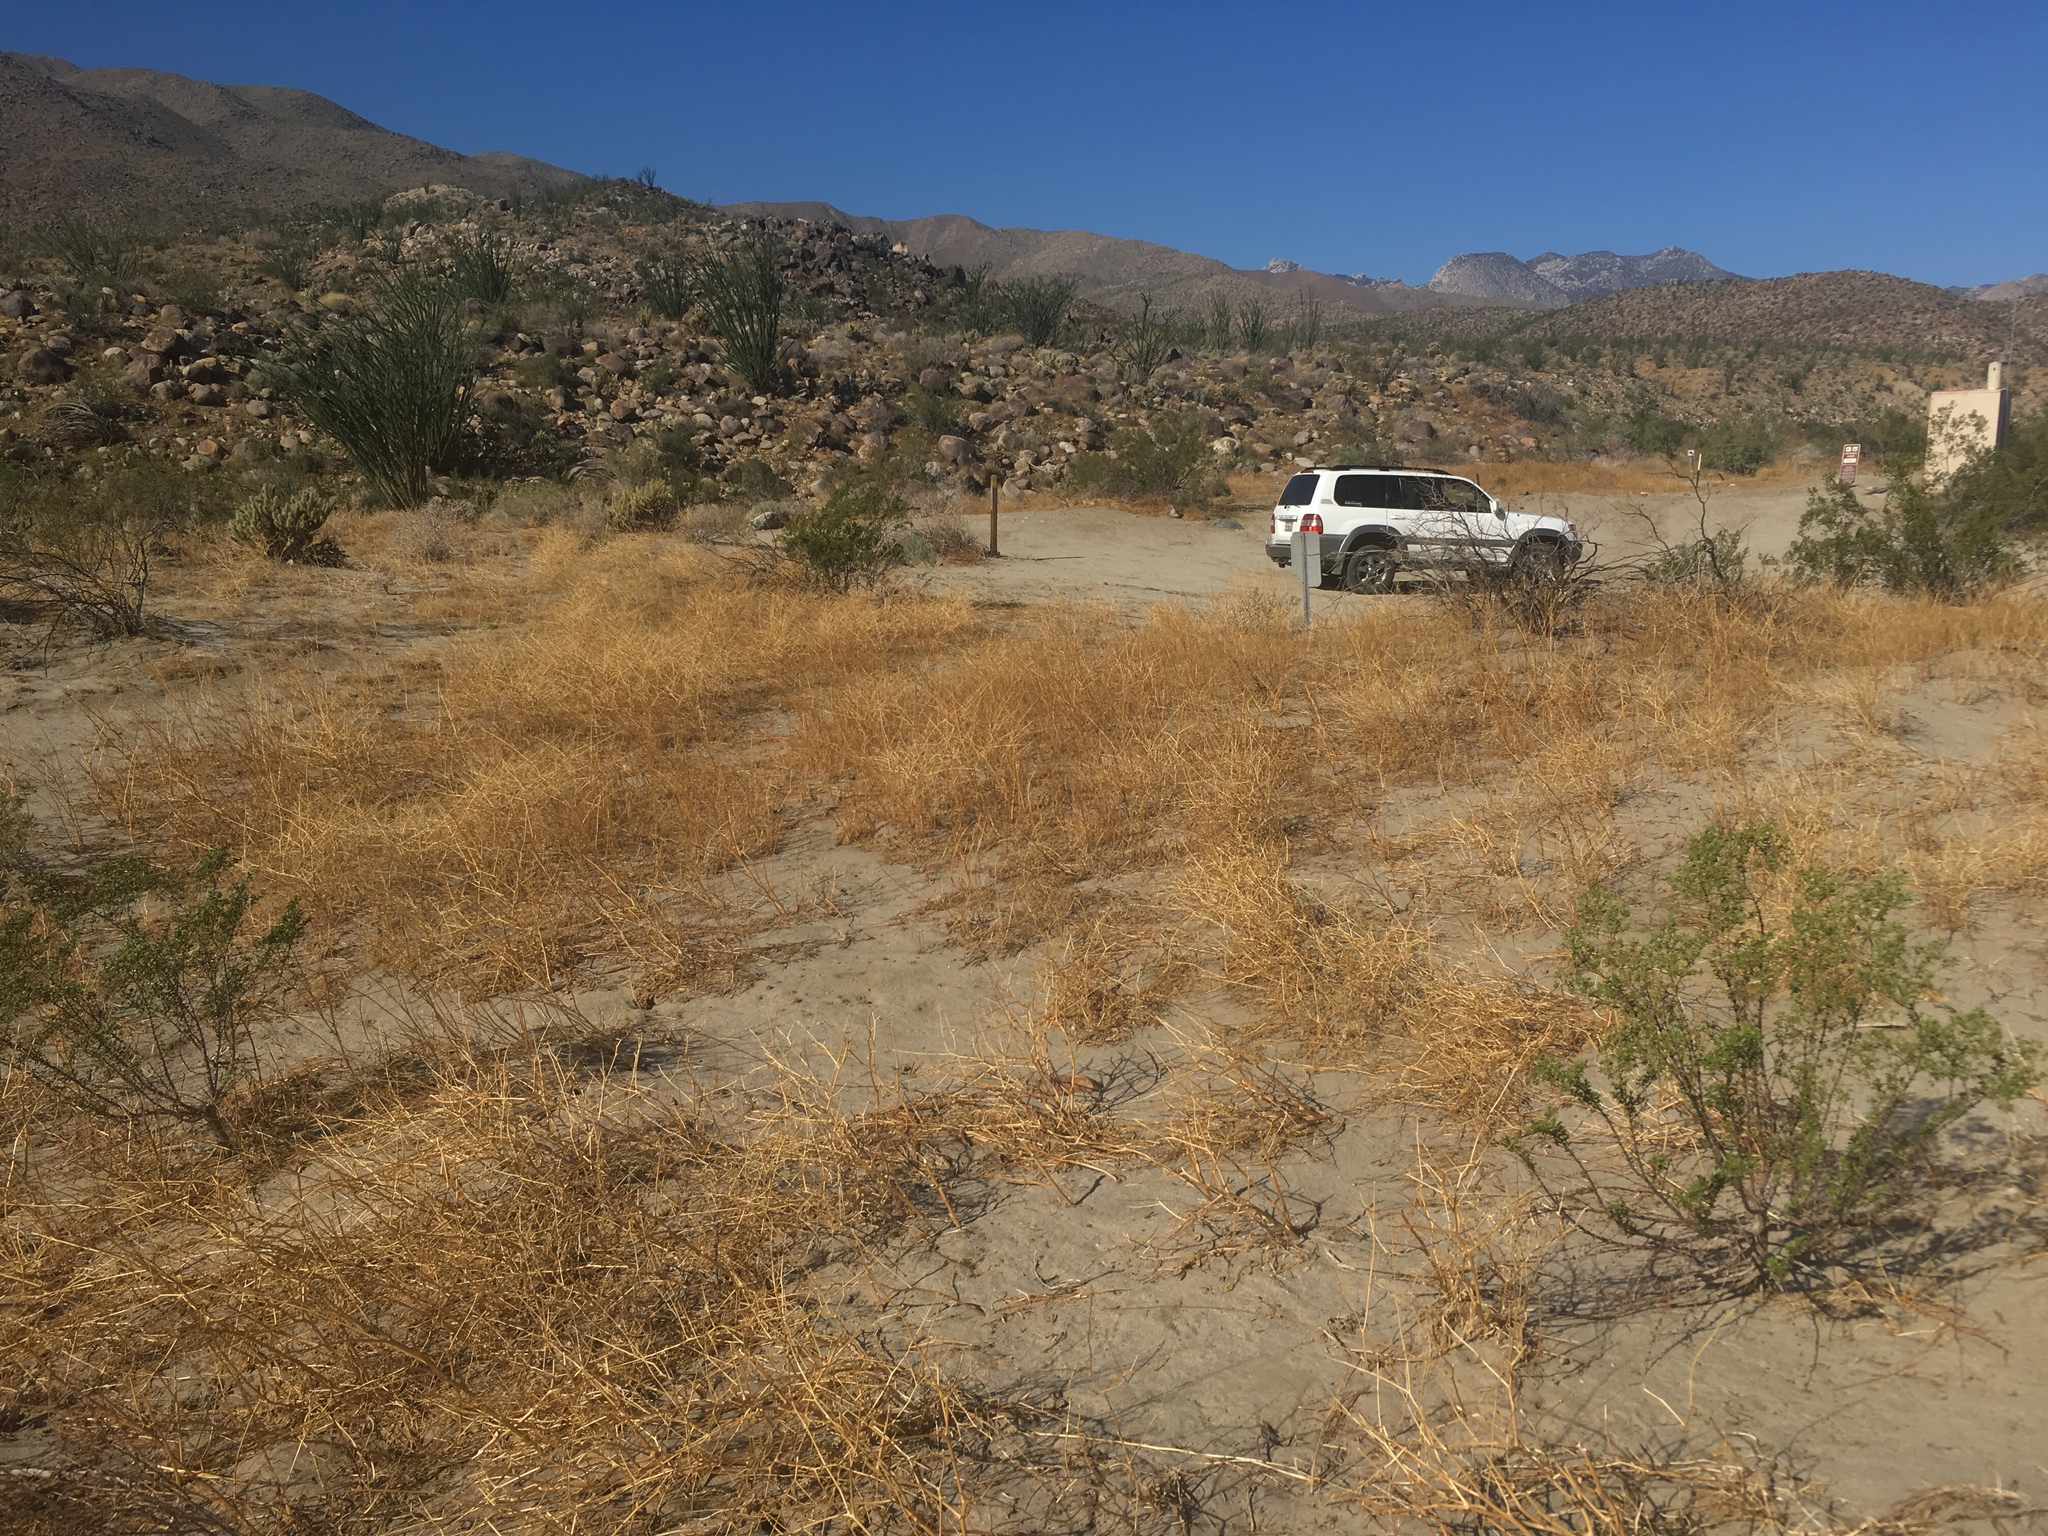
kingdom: Plantae
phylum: Tracheophyta
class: Magnoliopsida
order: Brassicales
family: Brassicaceae
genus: Brassica
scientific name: Brassica tournefortii
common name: Pale cabbage
